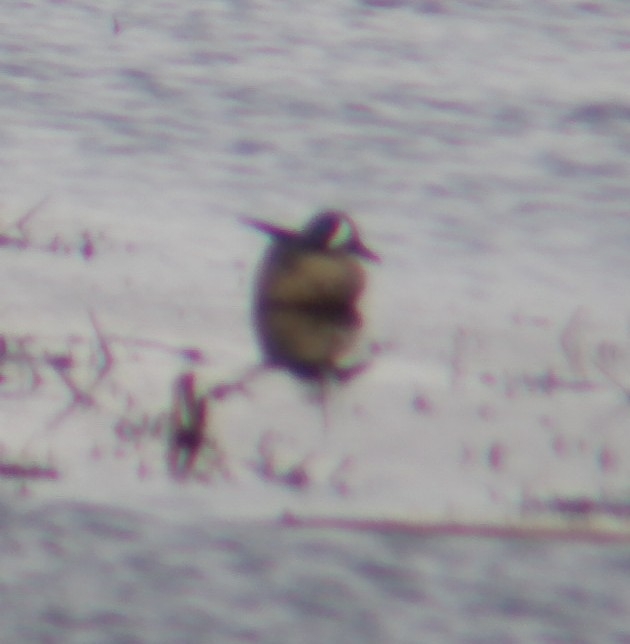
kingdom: Animalia
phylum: Chordata
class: Aves
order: Anseriformes
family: Anatidae
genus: Spatula
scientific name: Spatula discors
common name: Blue-winged teal
